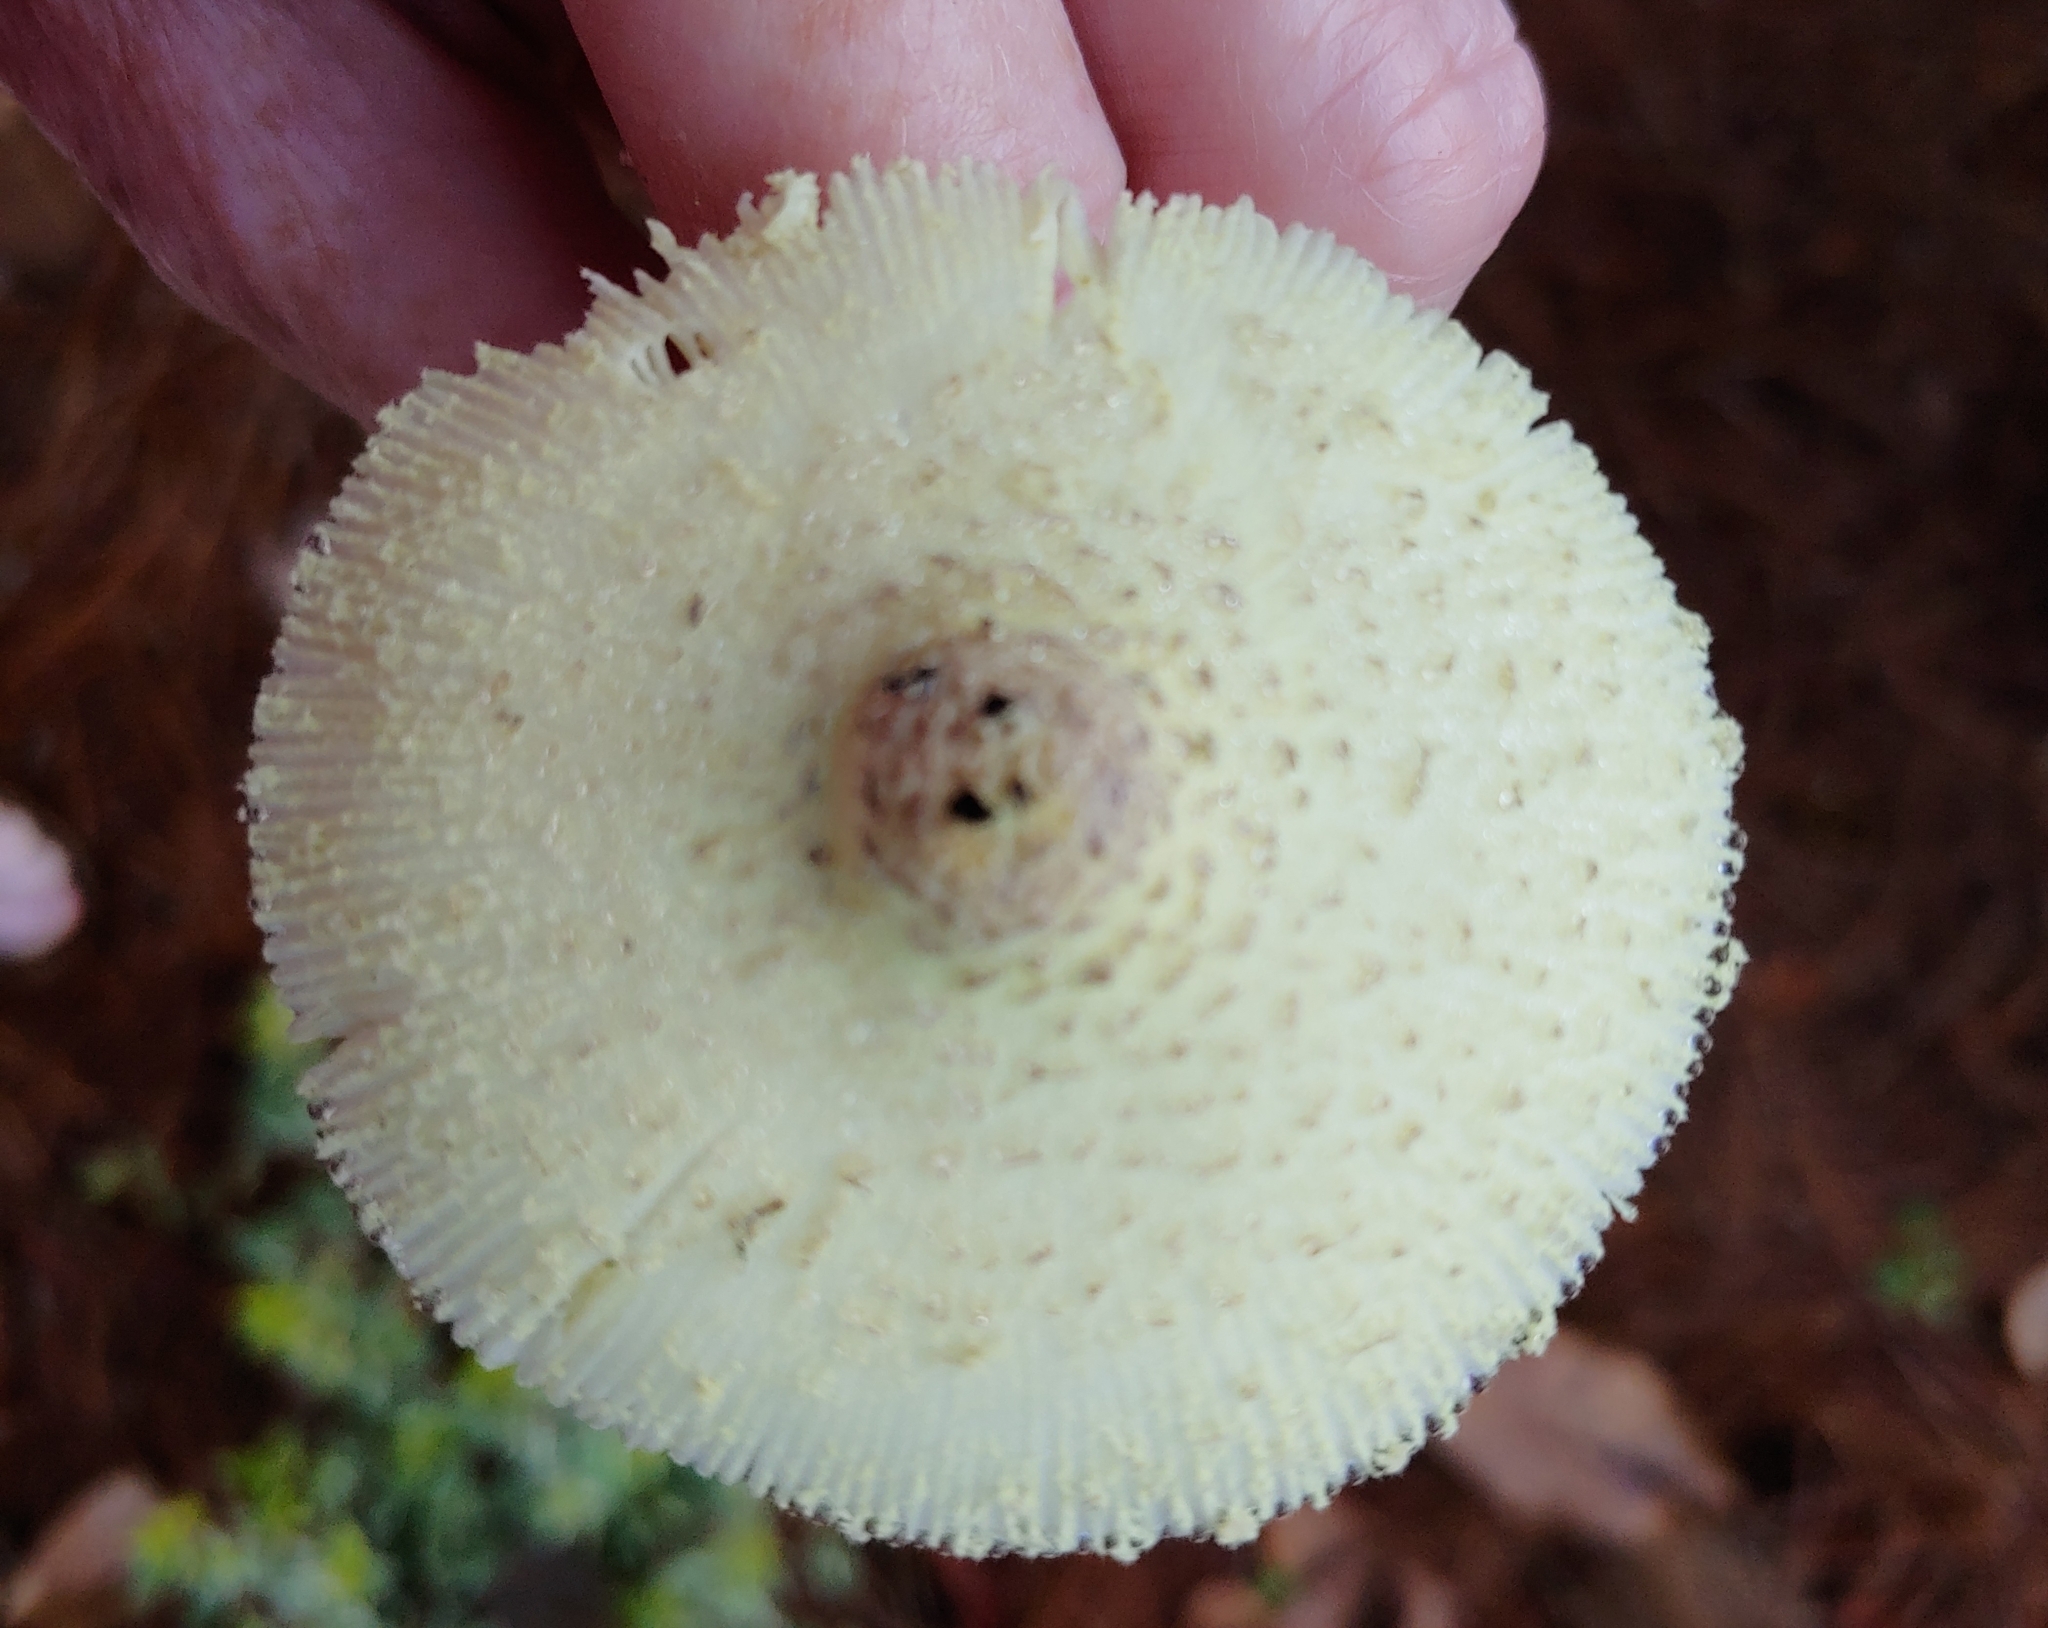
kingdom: Fungi
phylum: Basidiomycota
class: Agaricomycetes
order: Agaricales
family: Agaricaceae
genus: Leucocoprinus
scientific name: Leucocoprinus birnbaumii
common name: Plantpot dapperling
